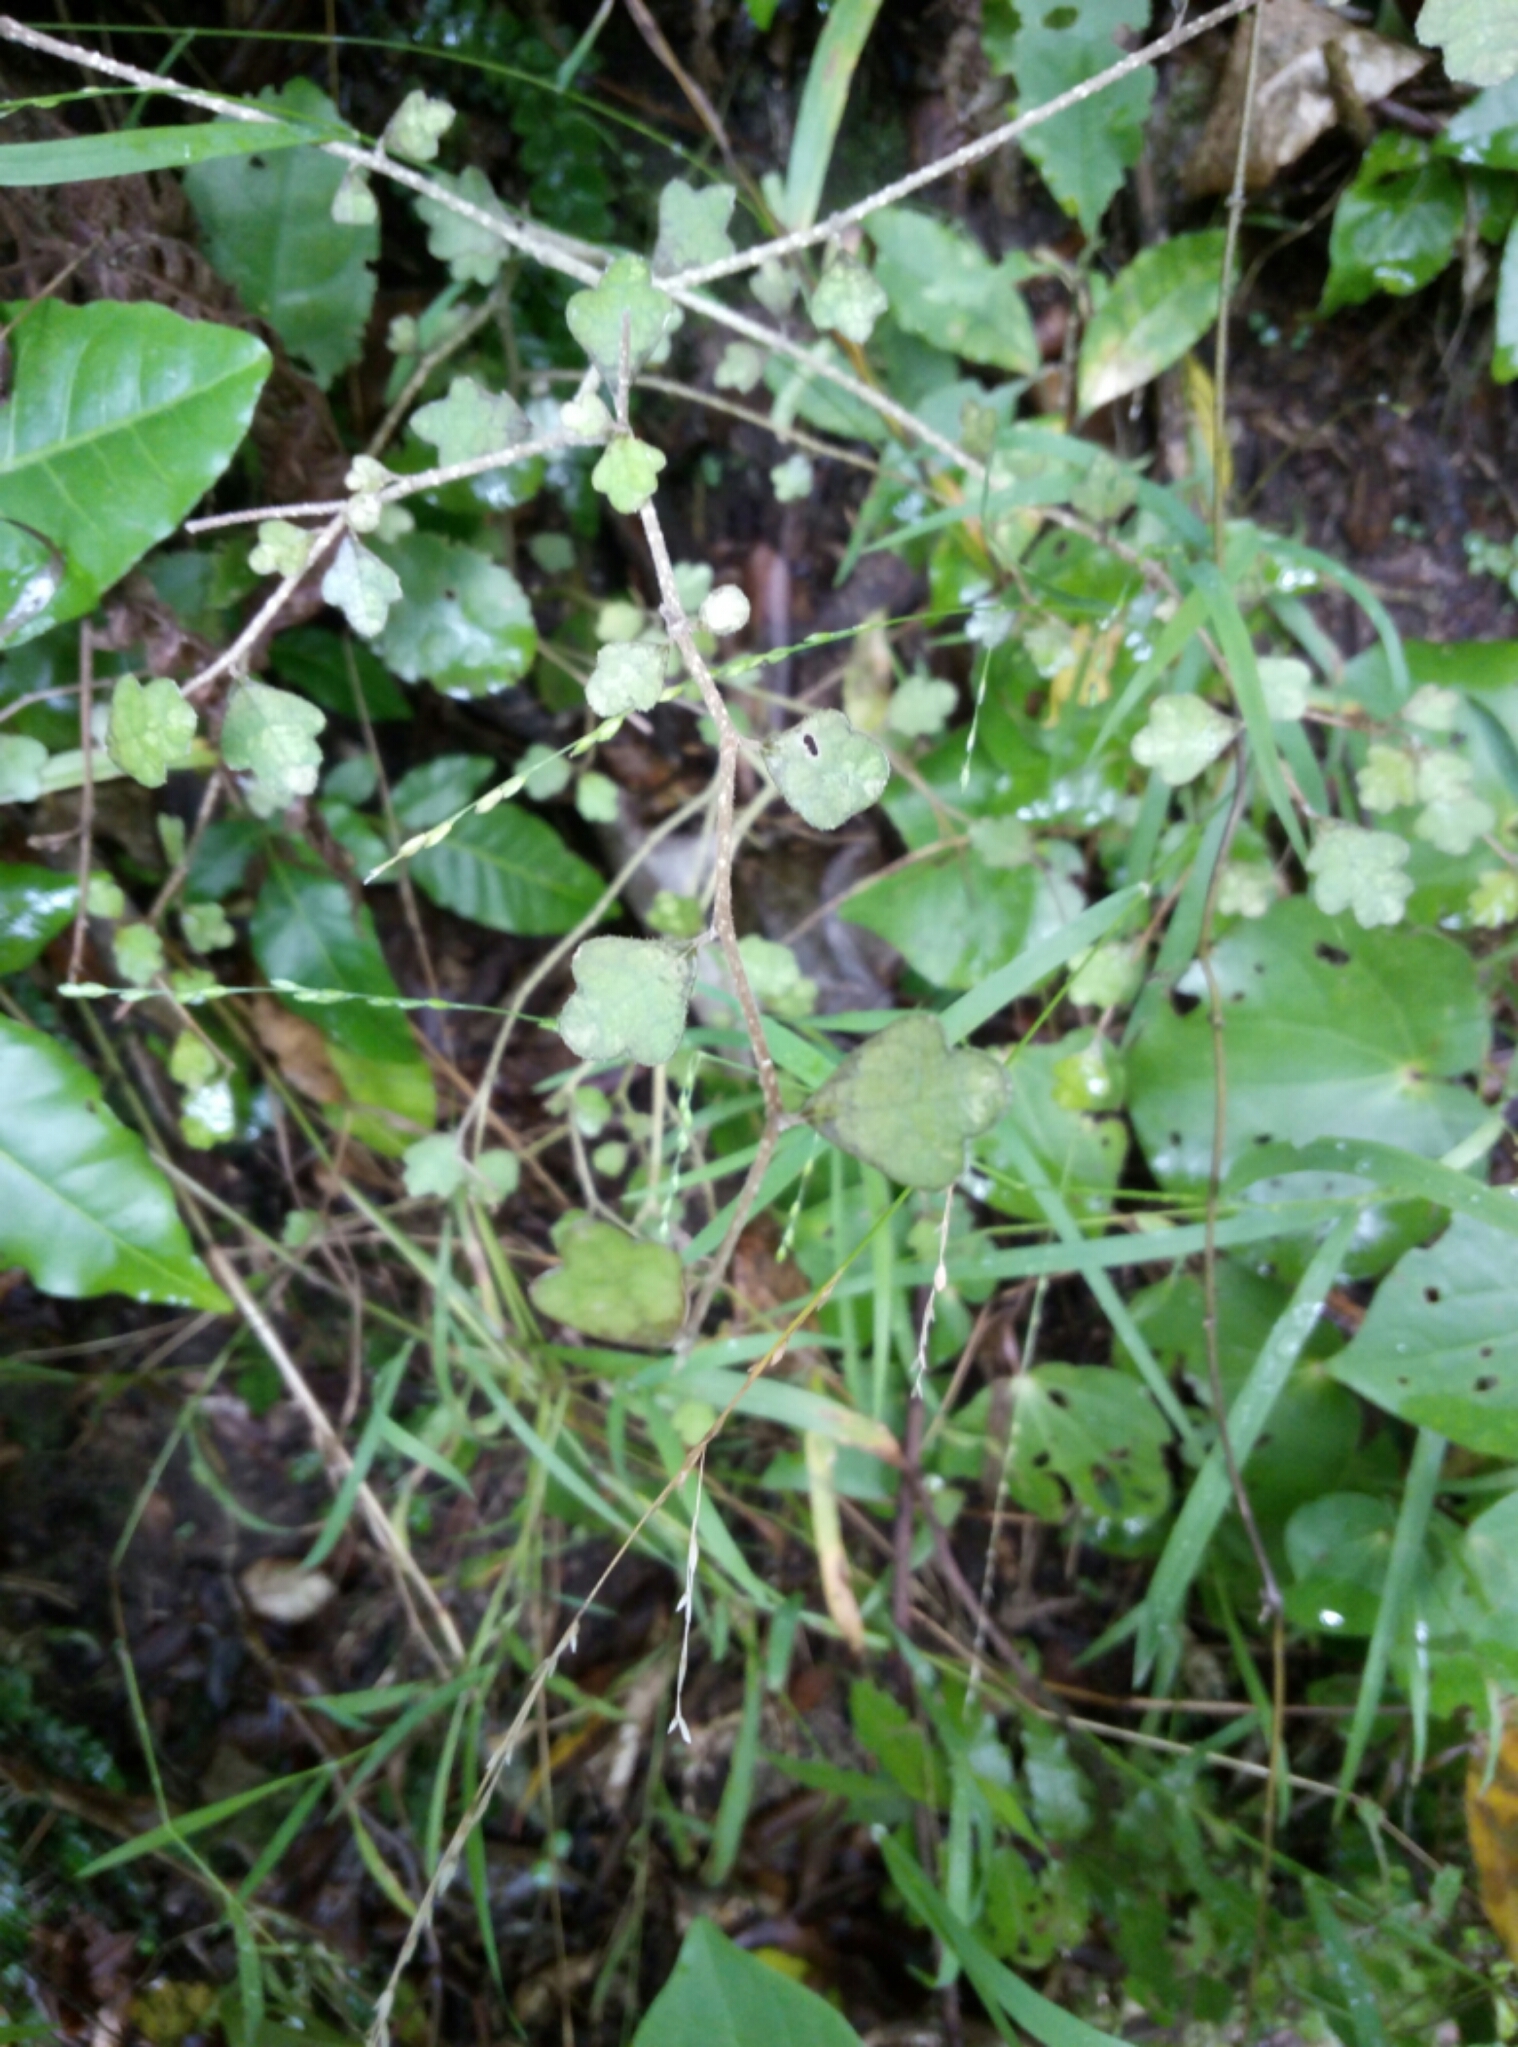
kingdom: Plantae
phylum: Tracheophyta
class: Magnoliopsida
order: Apiales
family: Pennantiaceae
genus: Pennantia
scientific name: Pennantia corymbosa
